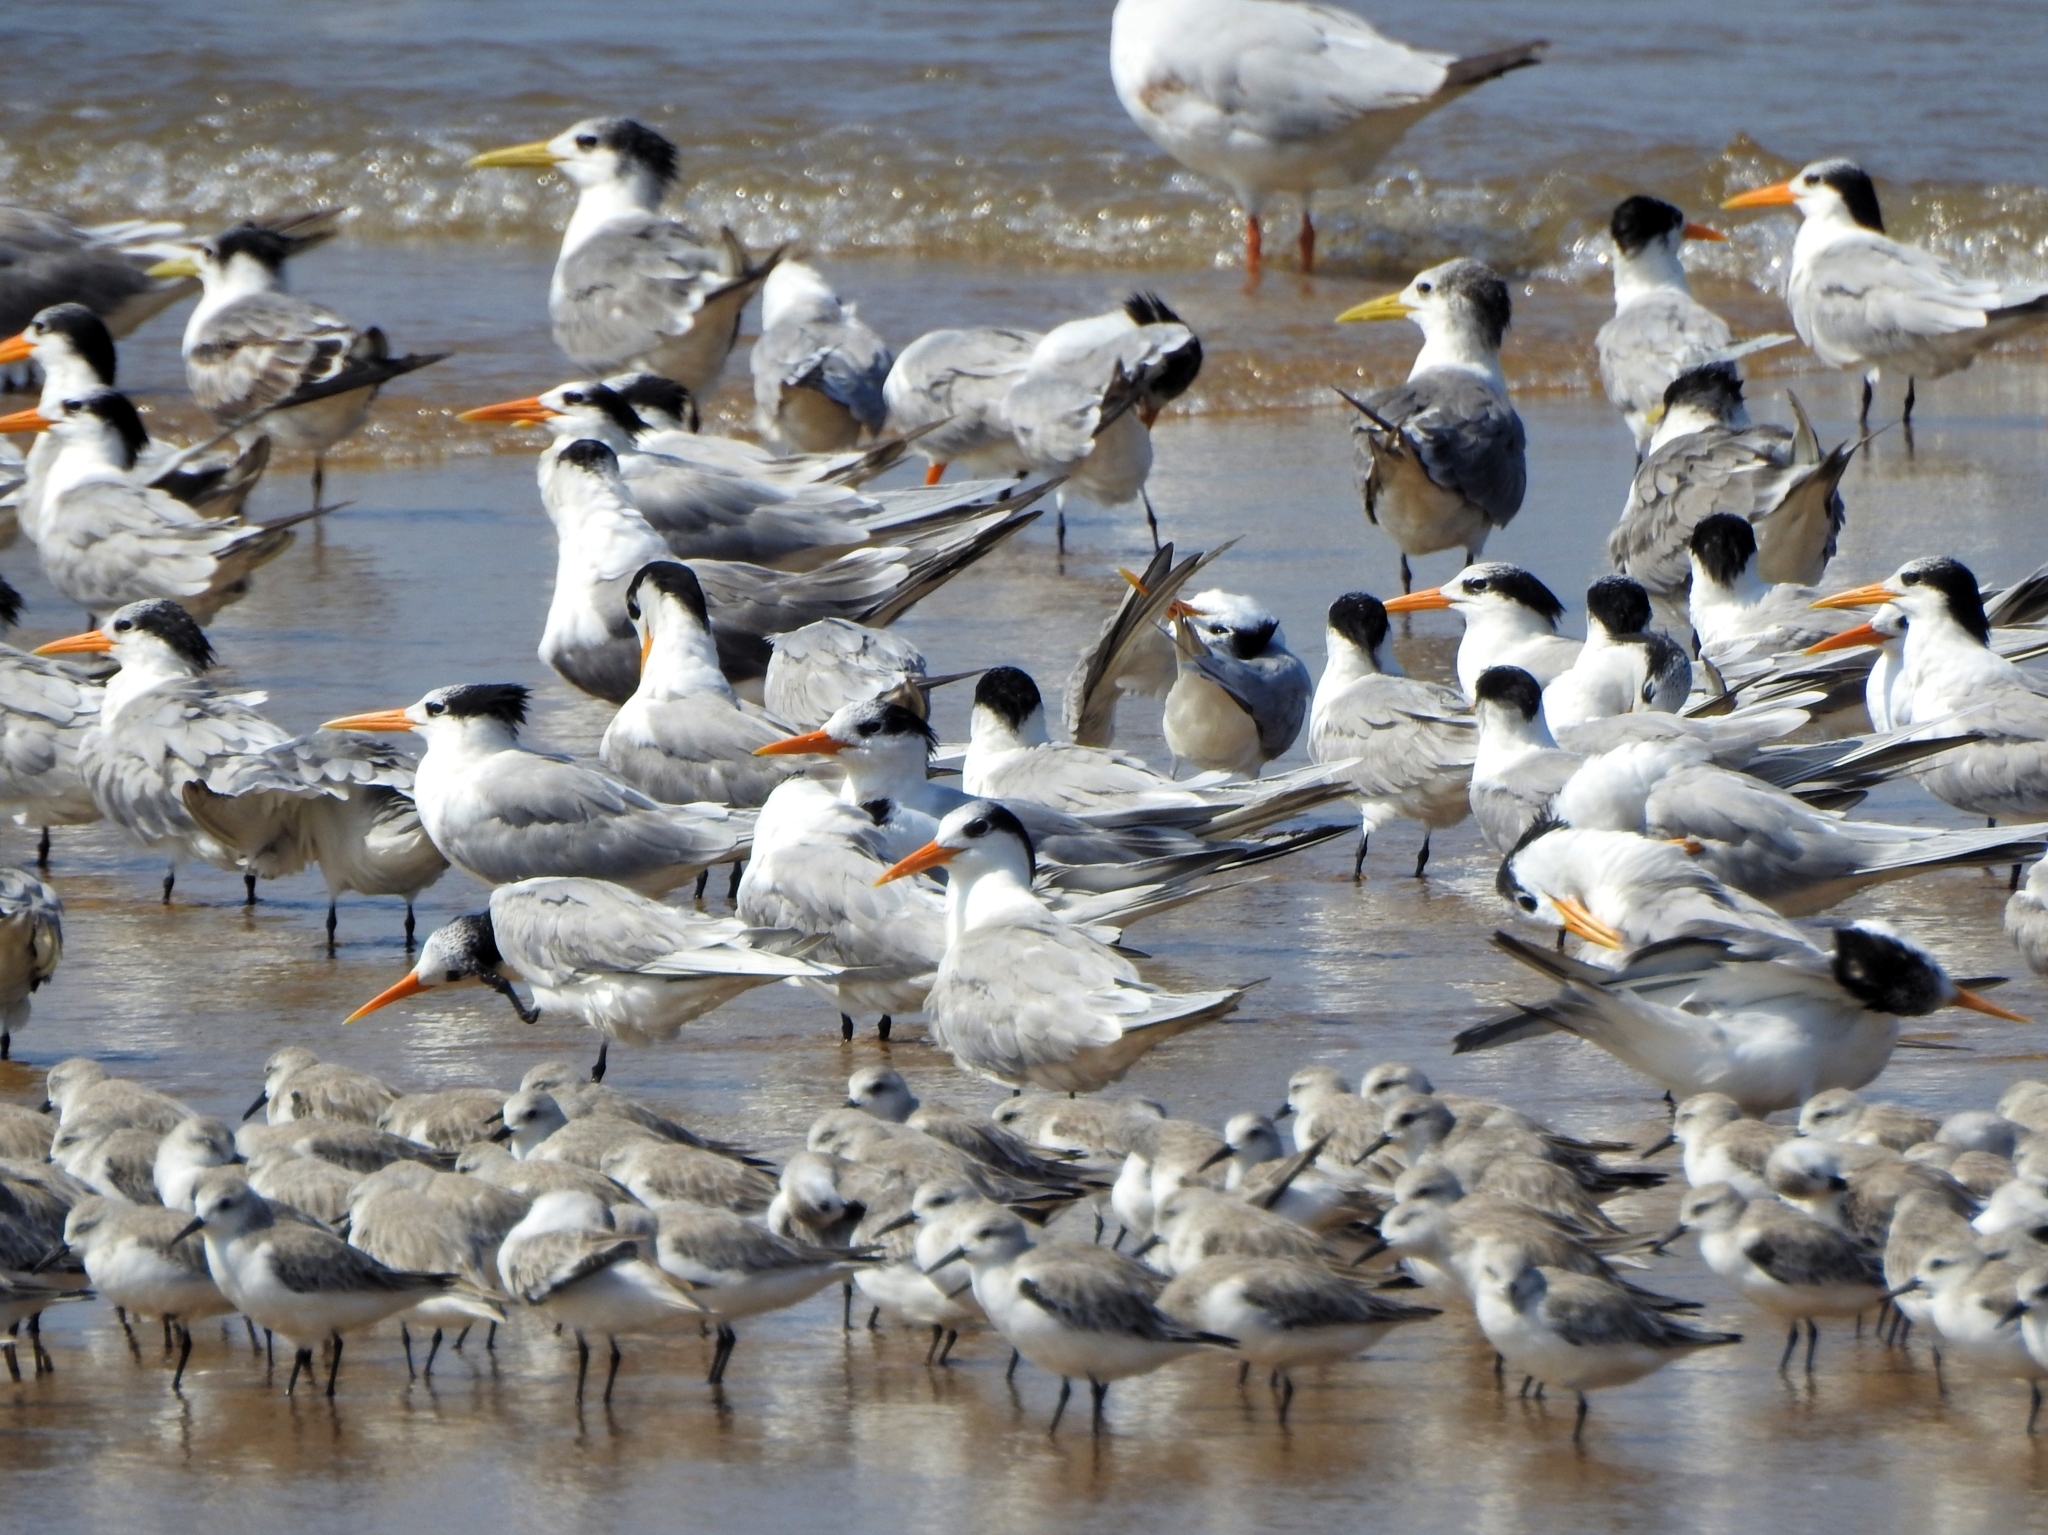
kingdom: Animalia
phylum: Chordata
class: Aves
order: Charadriiformes
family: Scolopacidae
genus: Calidris
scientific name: Calidris alba
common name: Sanderling
